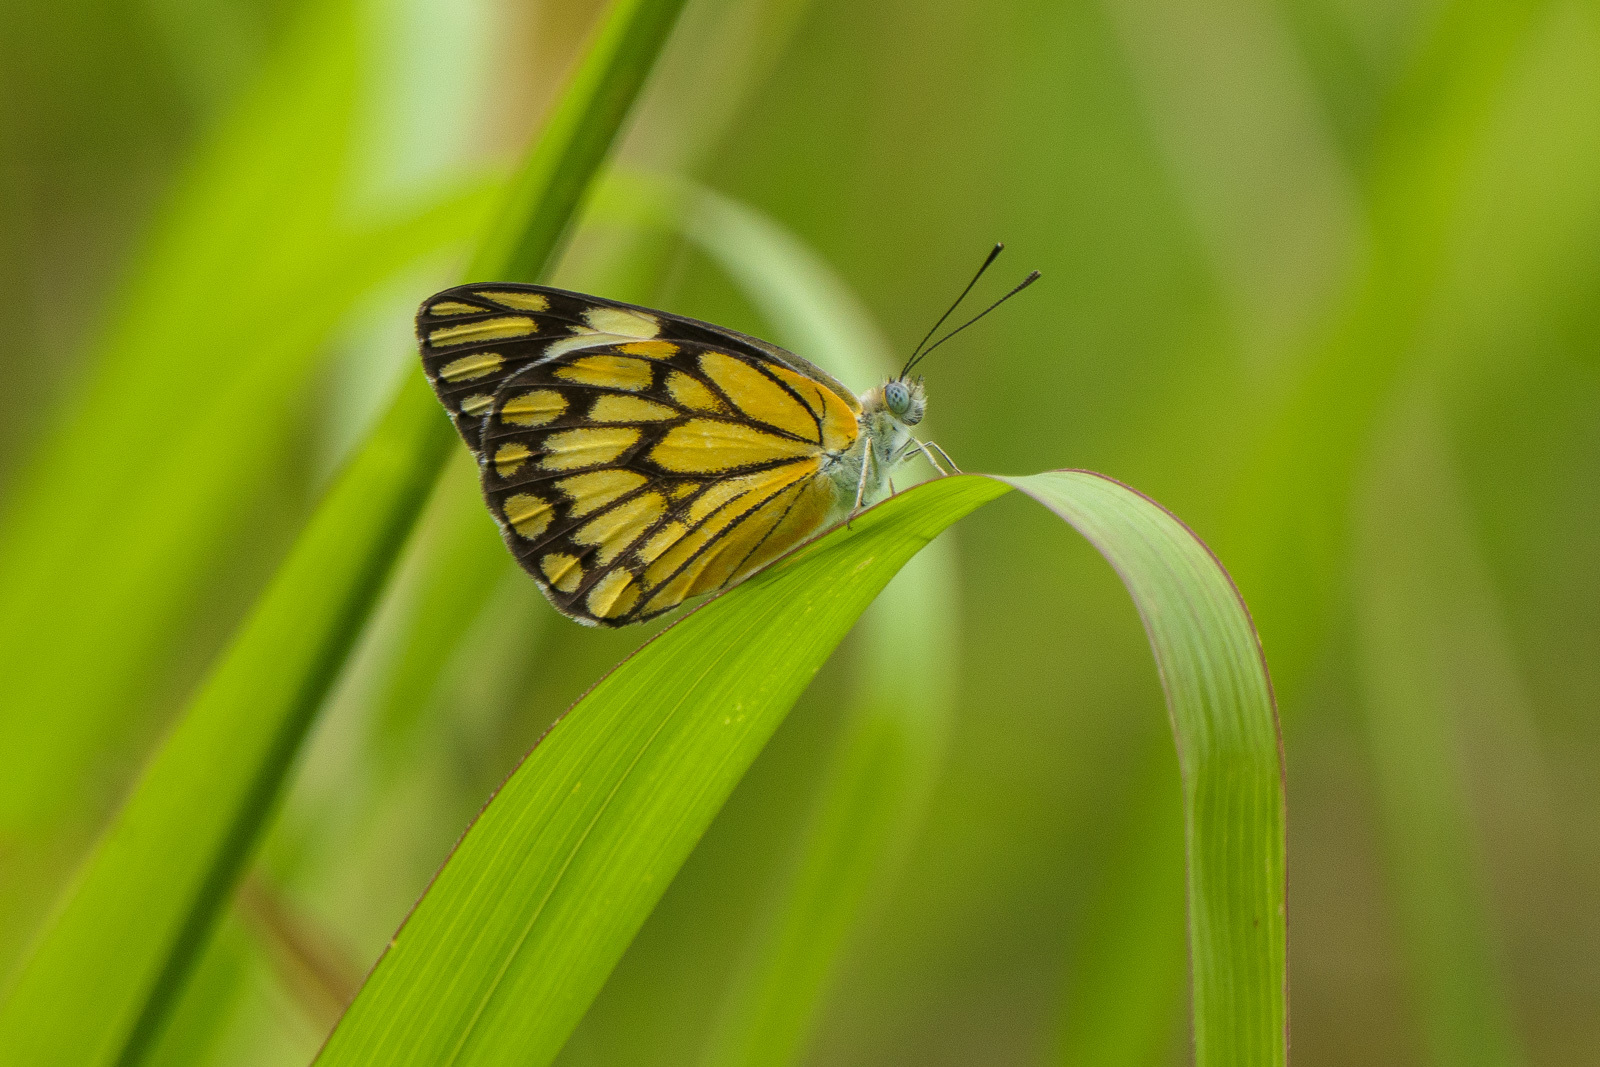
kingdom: Animalia
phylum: Arthropoda
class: Insecta
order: Lepidoptera
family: Pieridae
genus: Belenois
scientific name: Belenois aurota
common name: Brown-veined white
